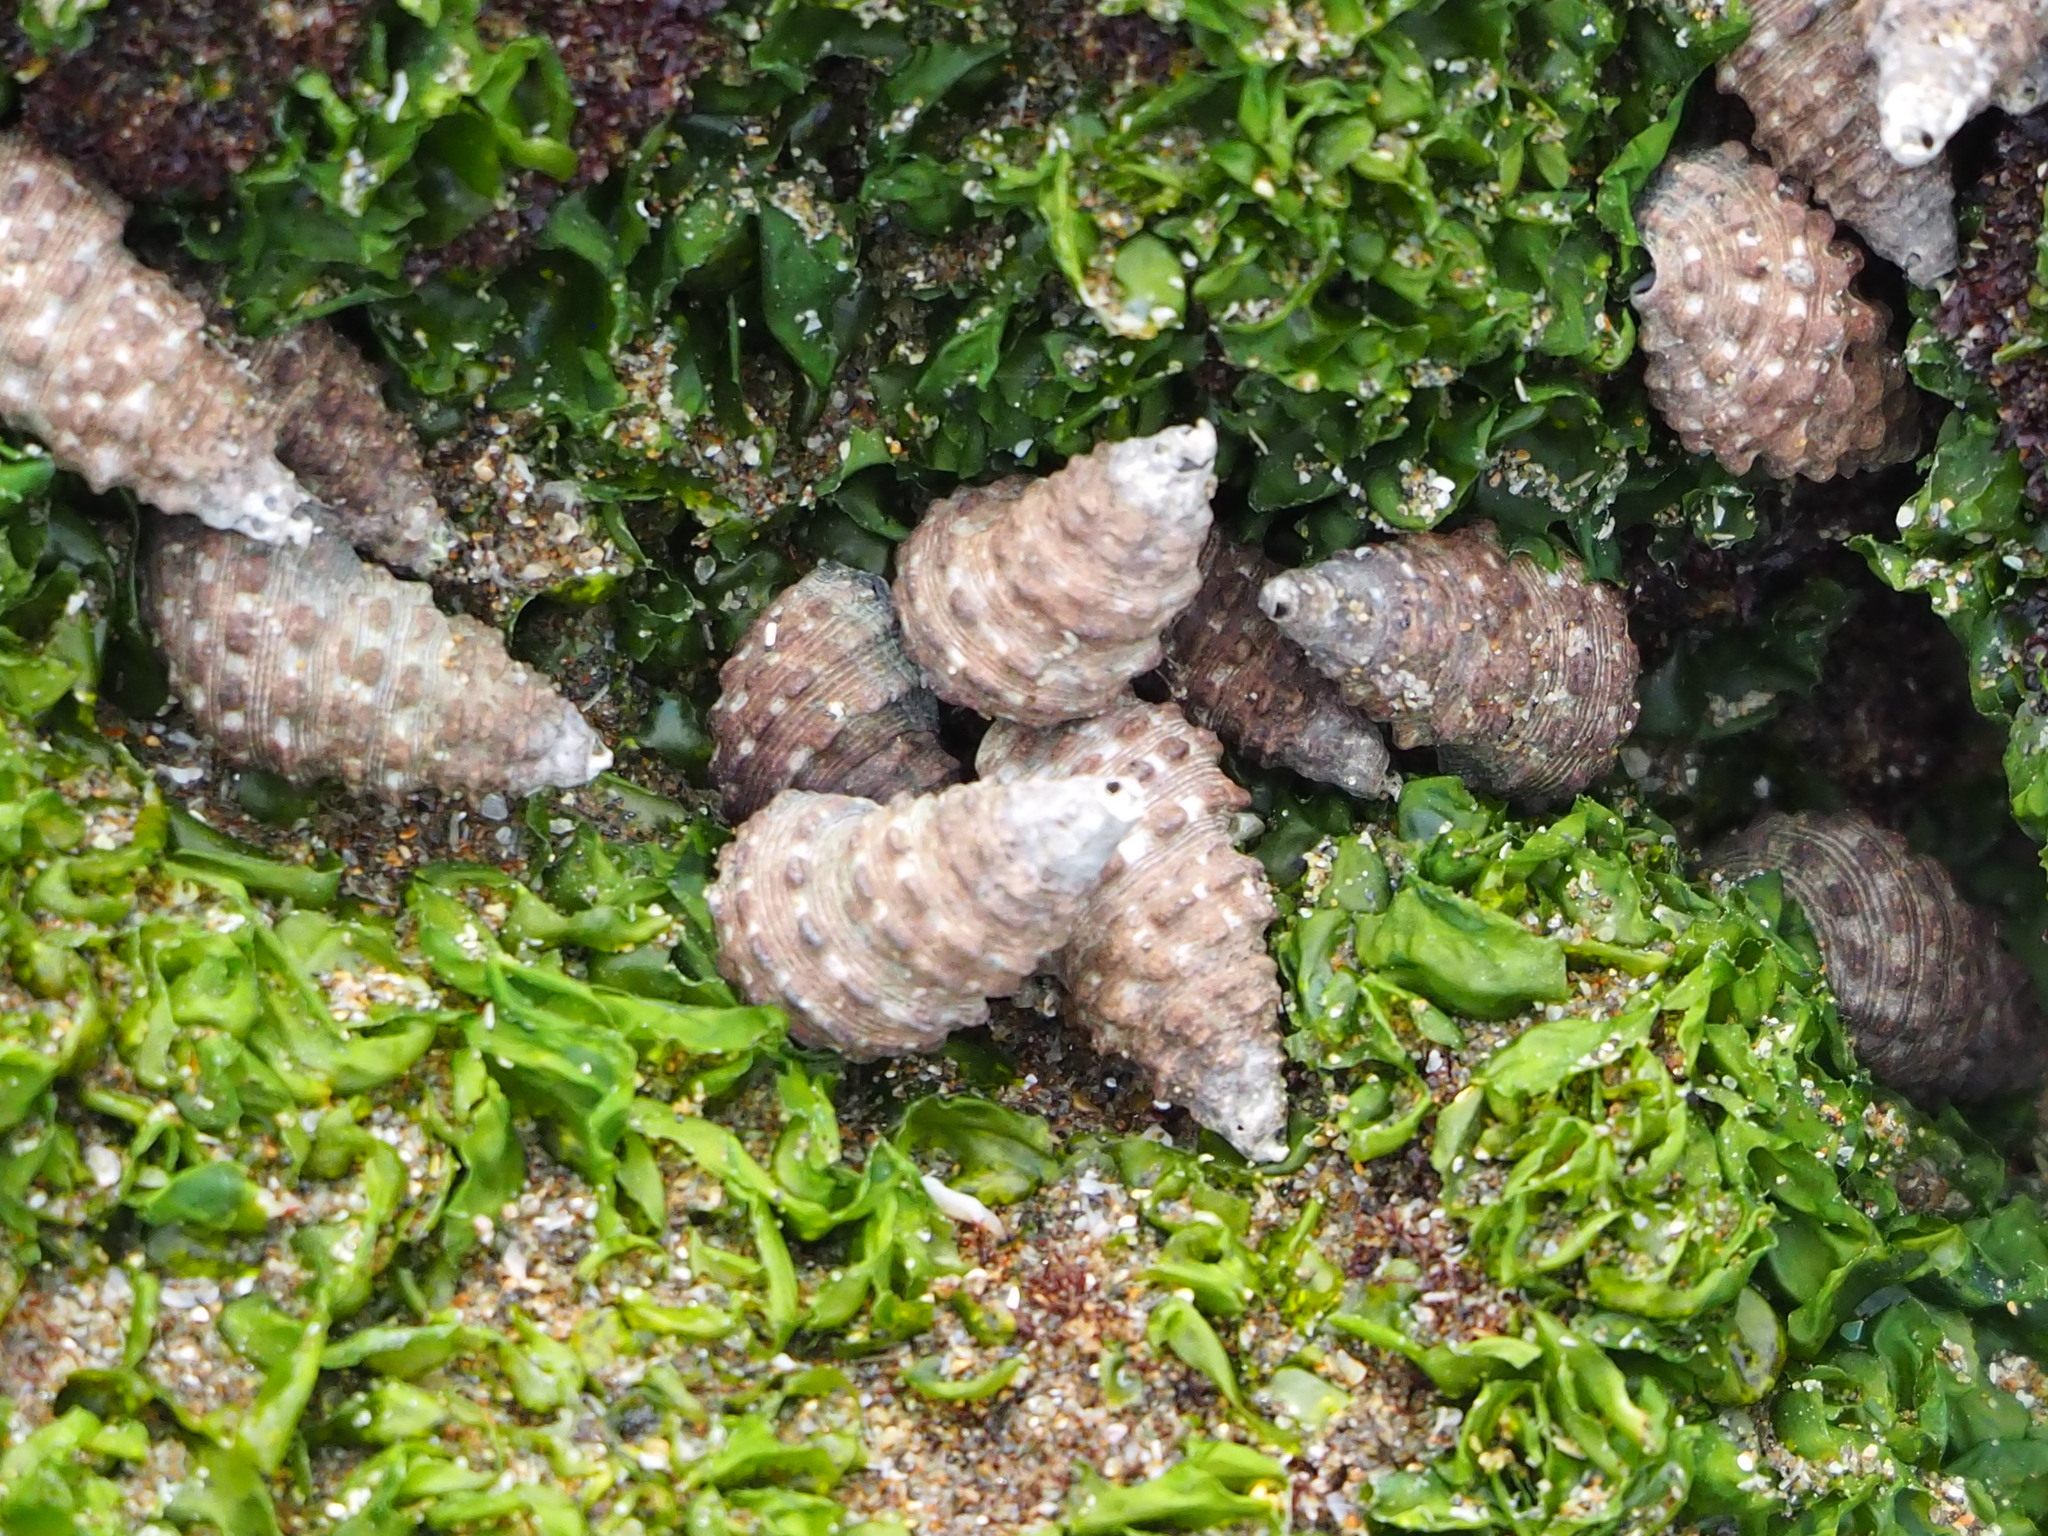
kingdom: Animalia
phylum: Mollusca
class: Gastropoda
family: Batillariidae
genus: Batillaria
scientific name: Batillaria sordida
